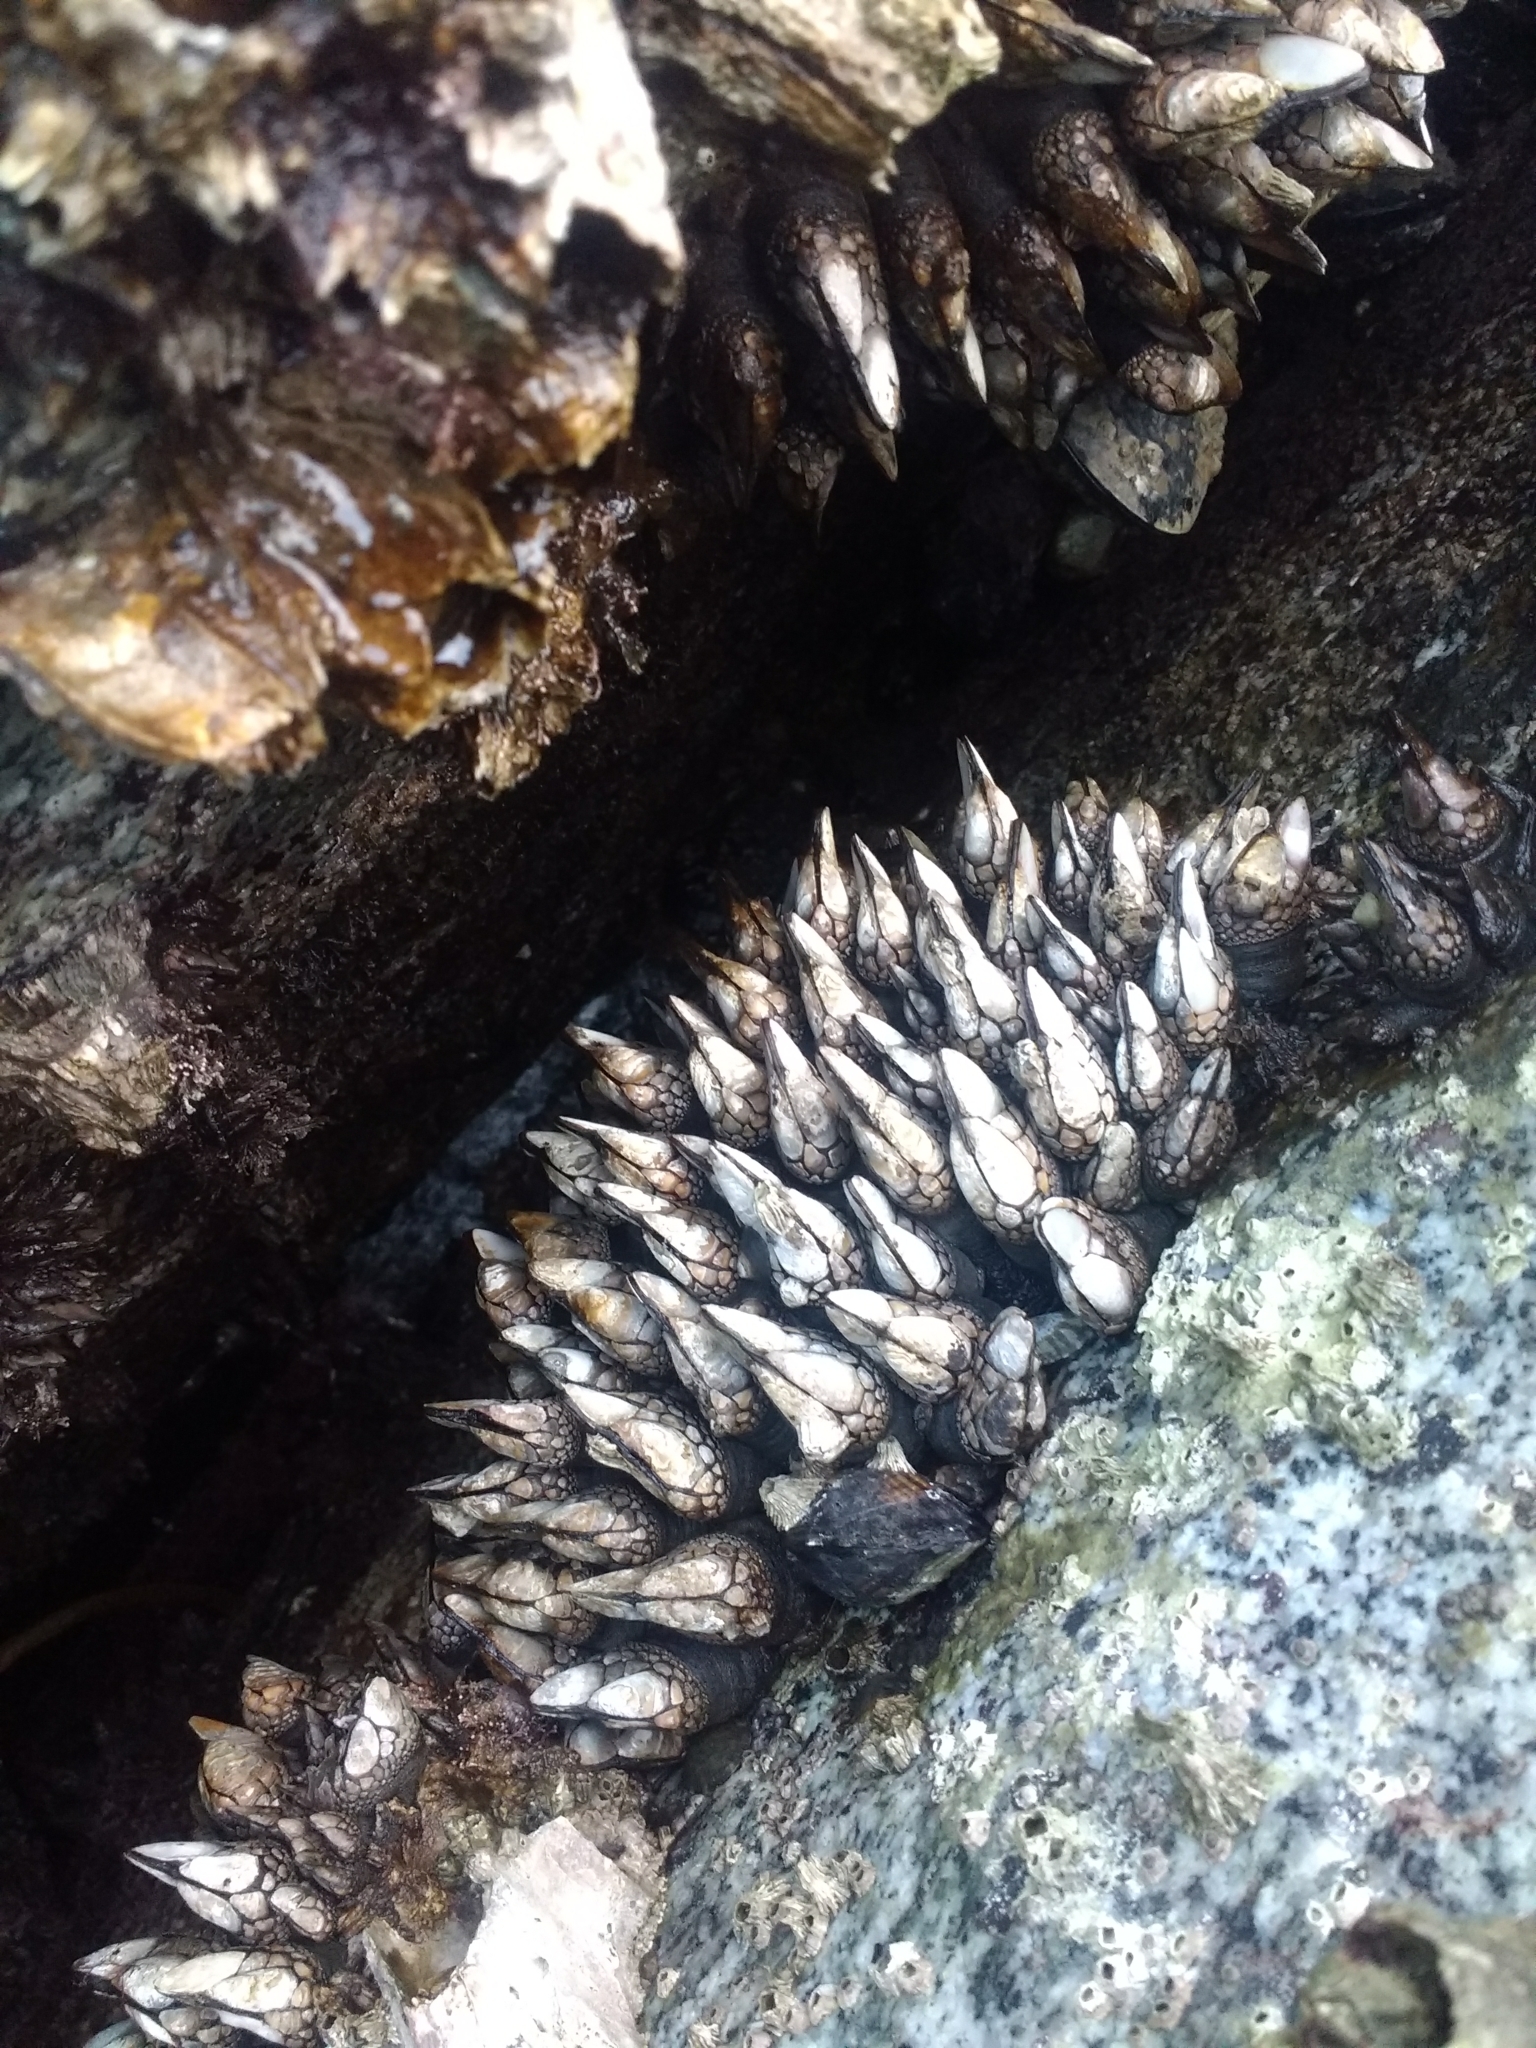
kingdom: Animalia
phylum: Arthropoda
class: Maxillopoda
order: Pedunculata
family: Pollicipedidae
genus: Pollicipes
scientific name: Pollicipes polymerus
